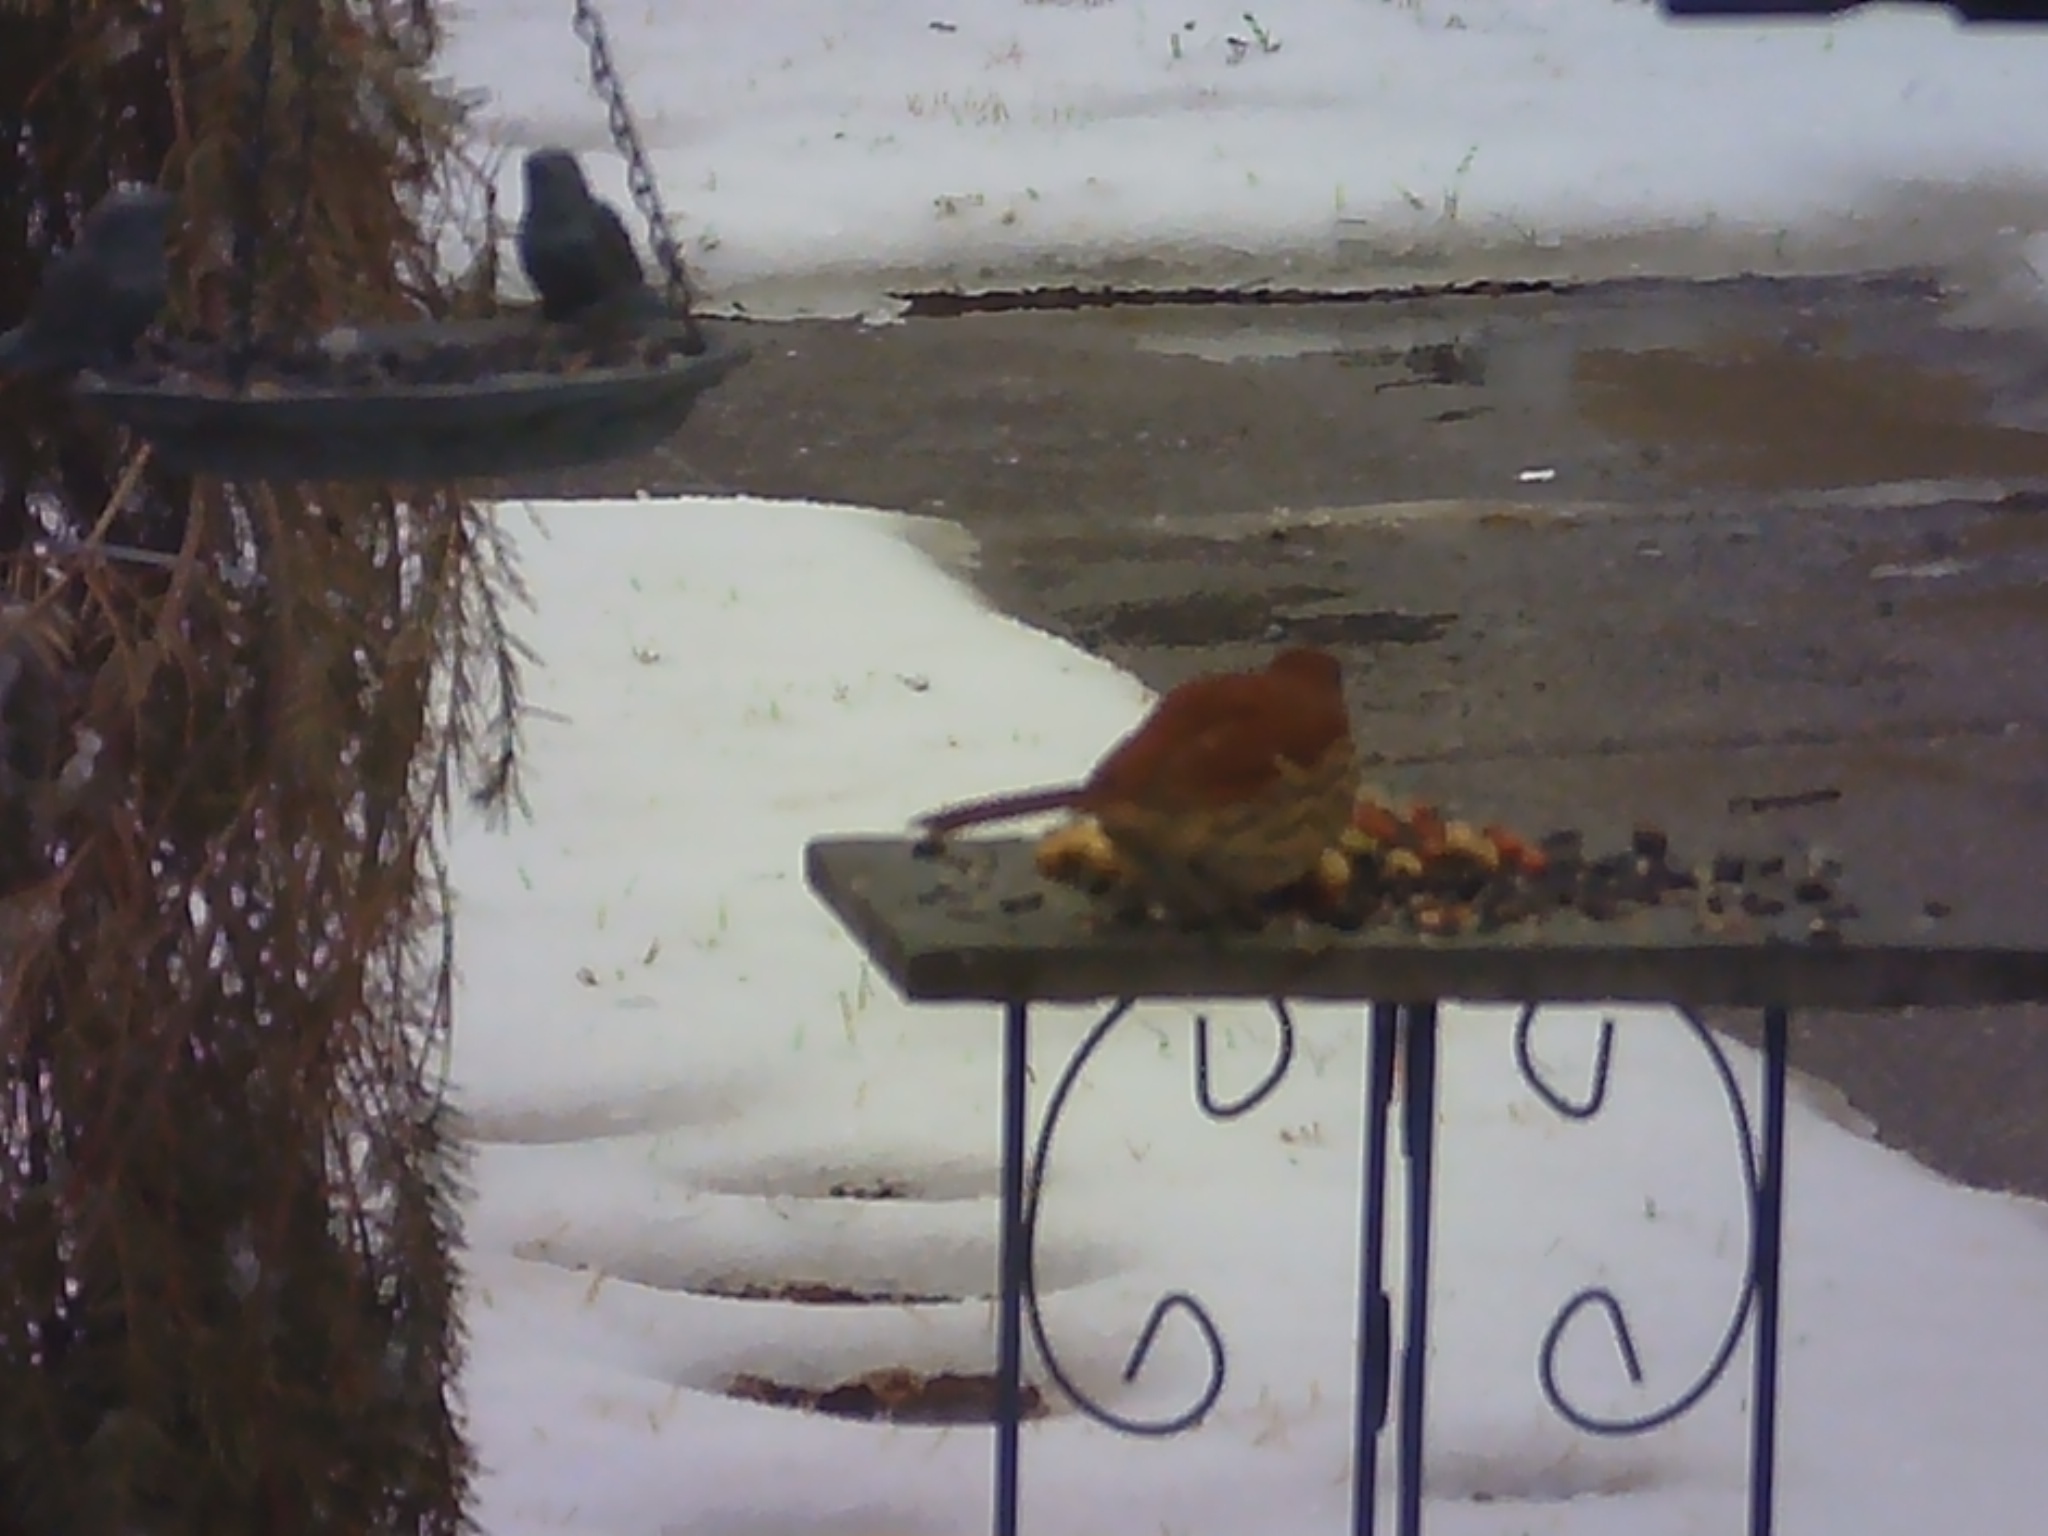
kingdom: Animalia
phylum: Chordata
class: Aves
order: Passeriformes
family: Mimidae
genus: Toxostoma
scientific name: Toxostoma rufum
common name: Brown thrasher
